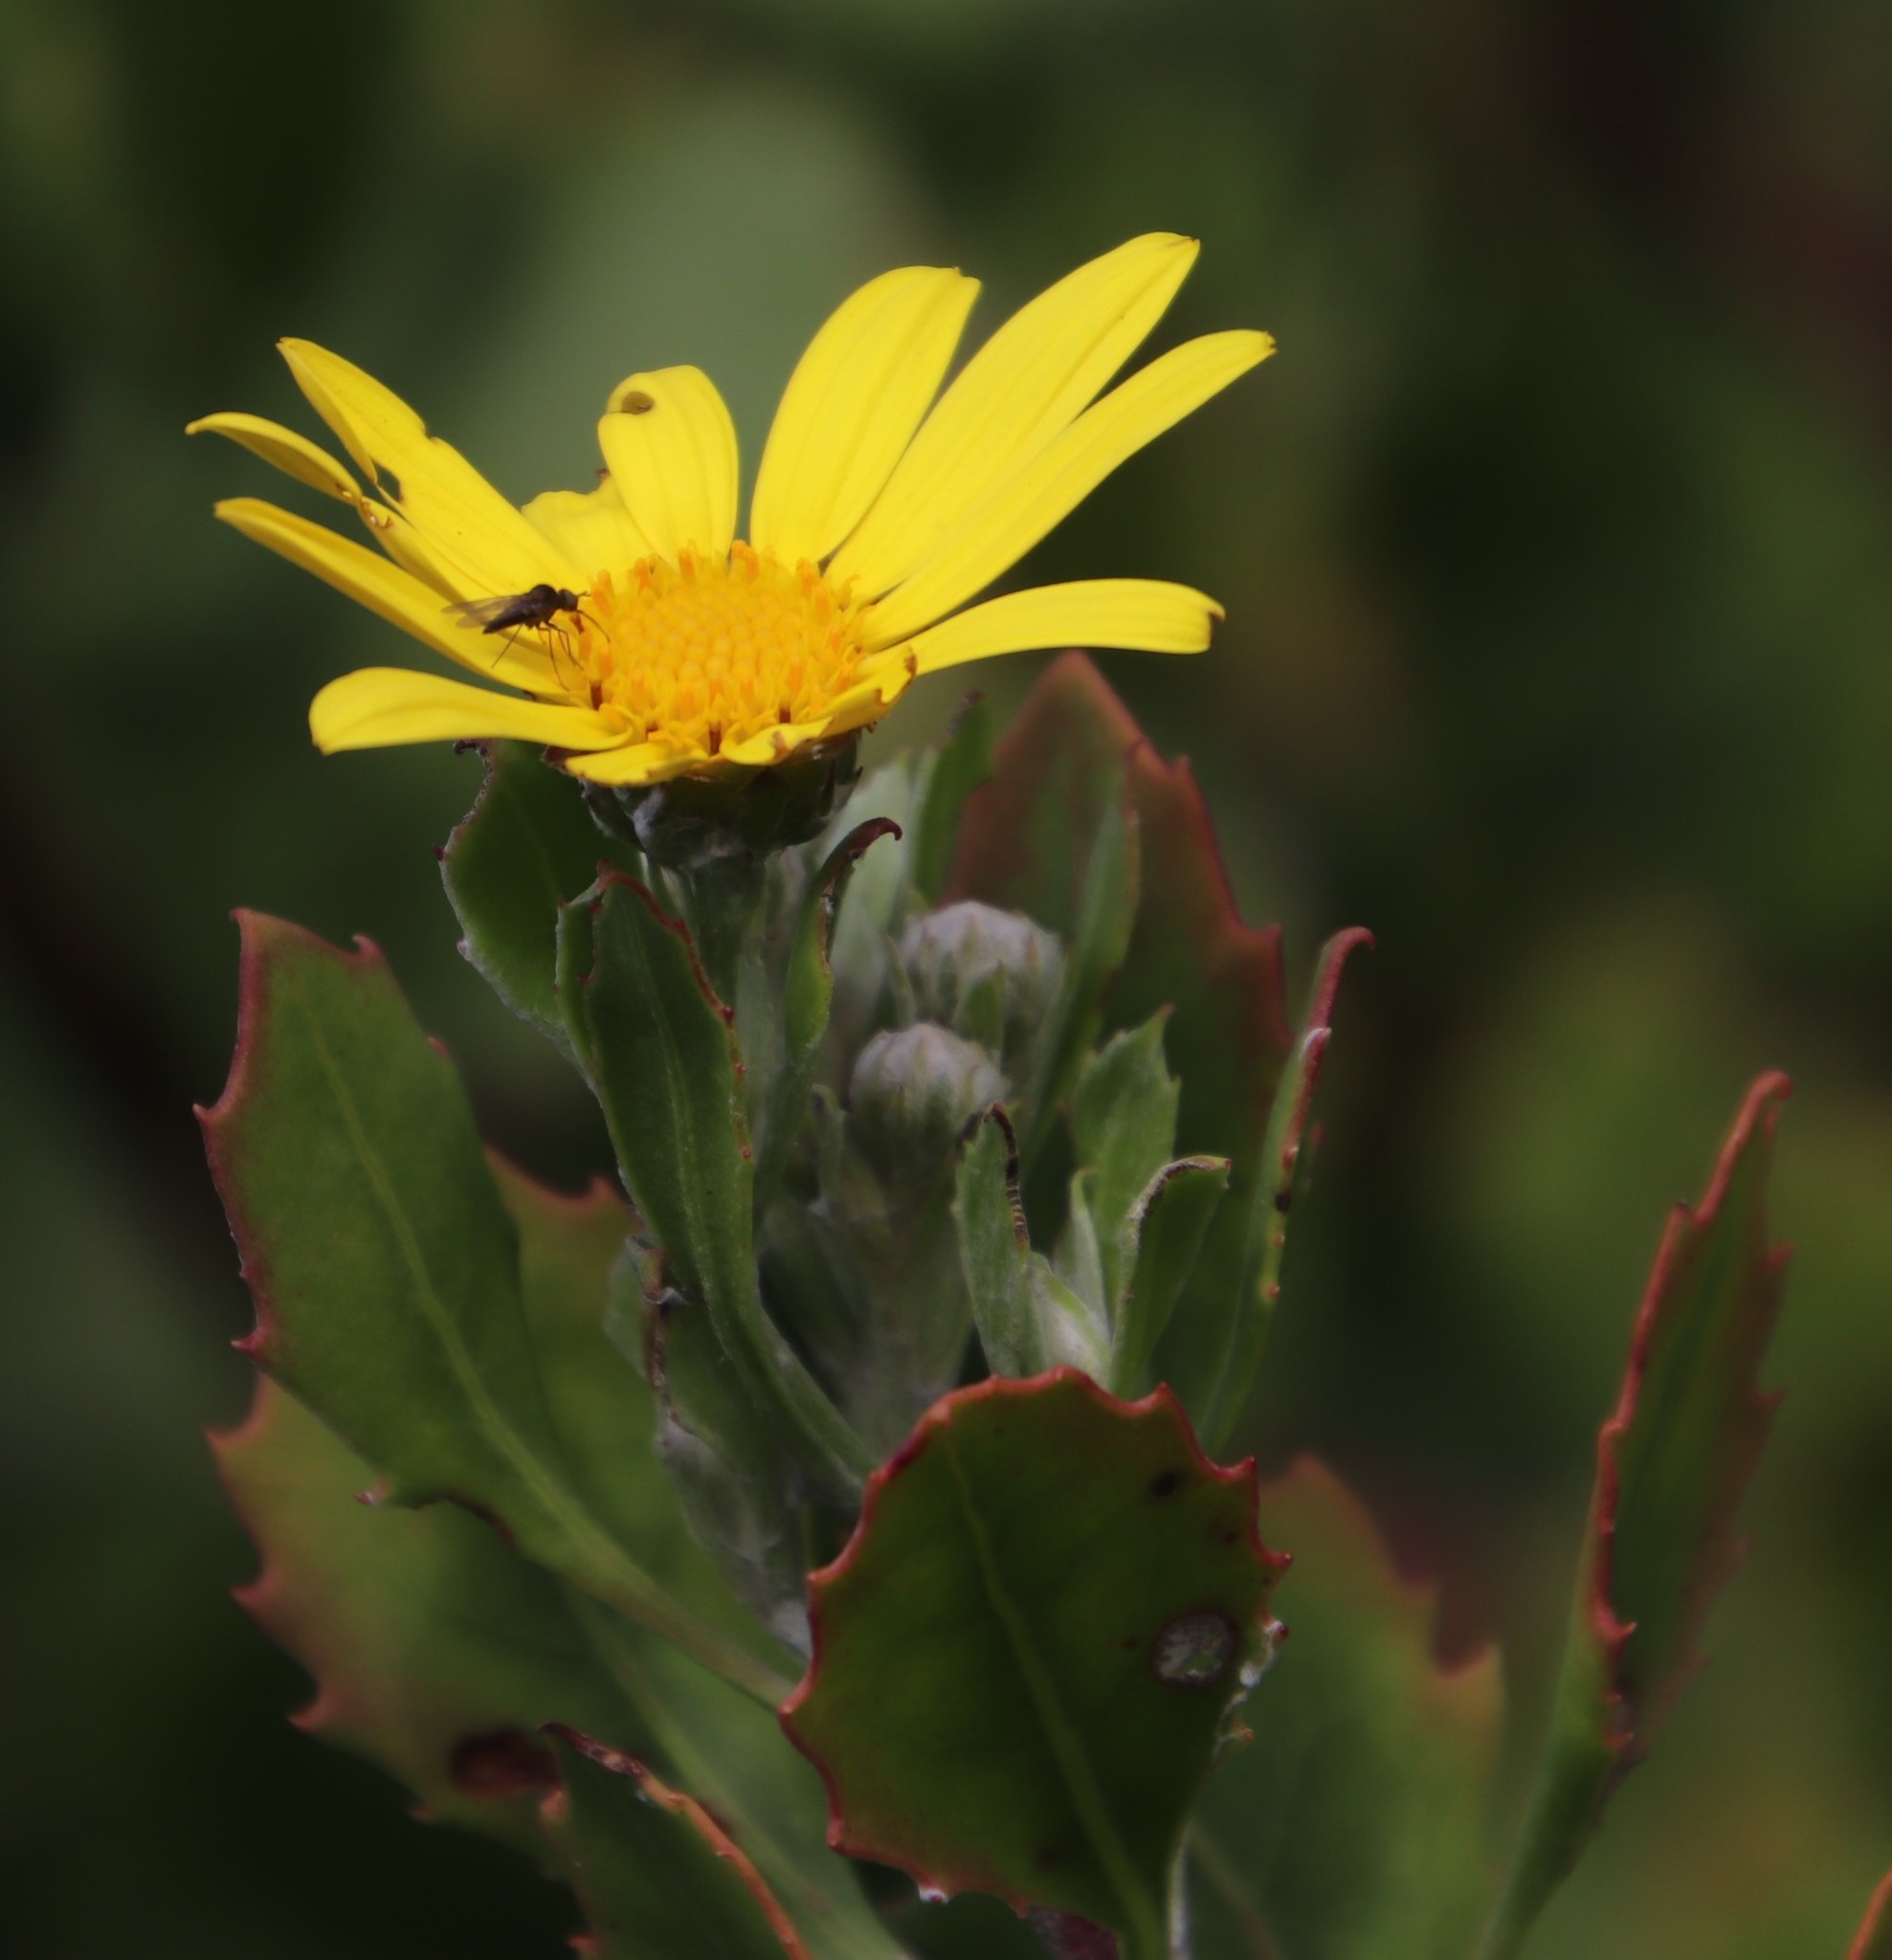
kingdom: Plantae
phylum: Tracheophyta
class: Magnoliopsida
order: Asterales
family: Asteraceae
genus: Osteospermum
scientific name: Osteospermum moniliferum
